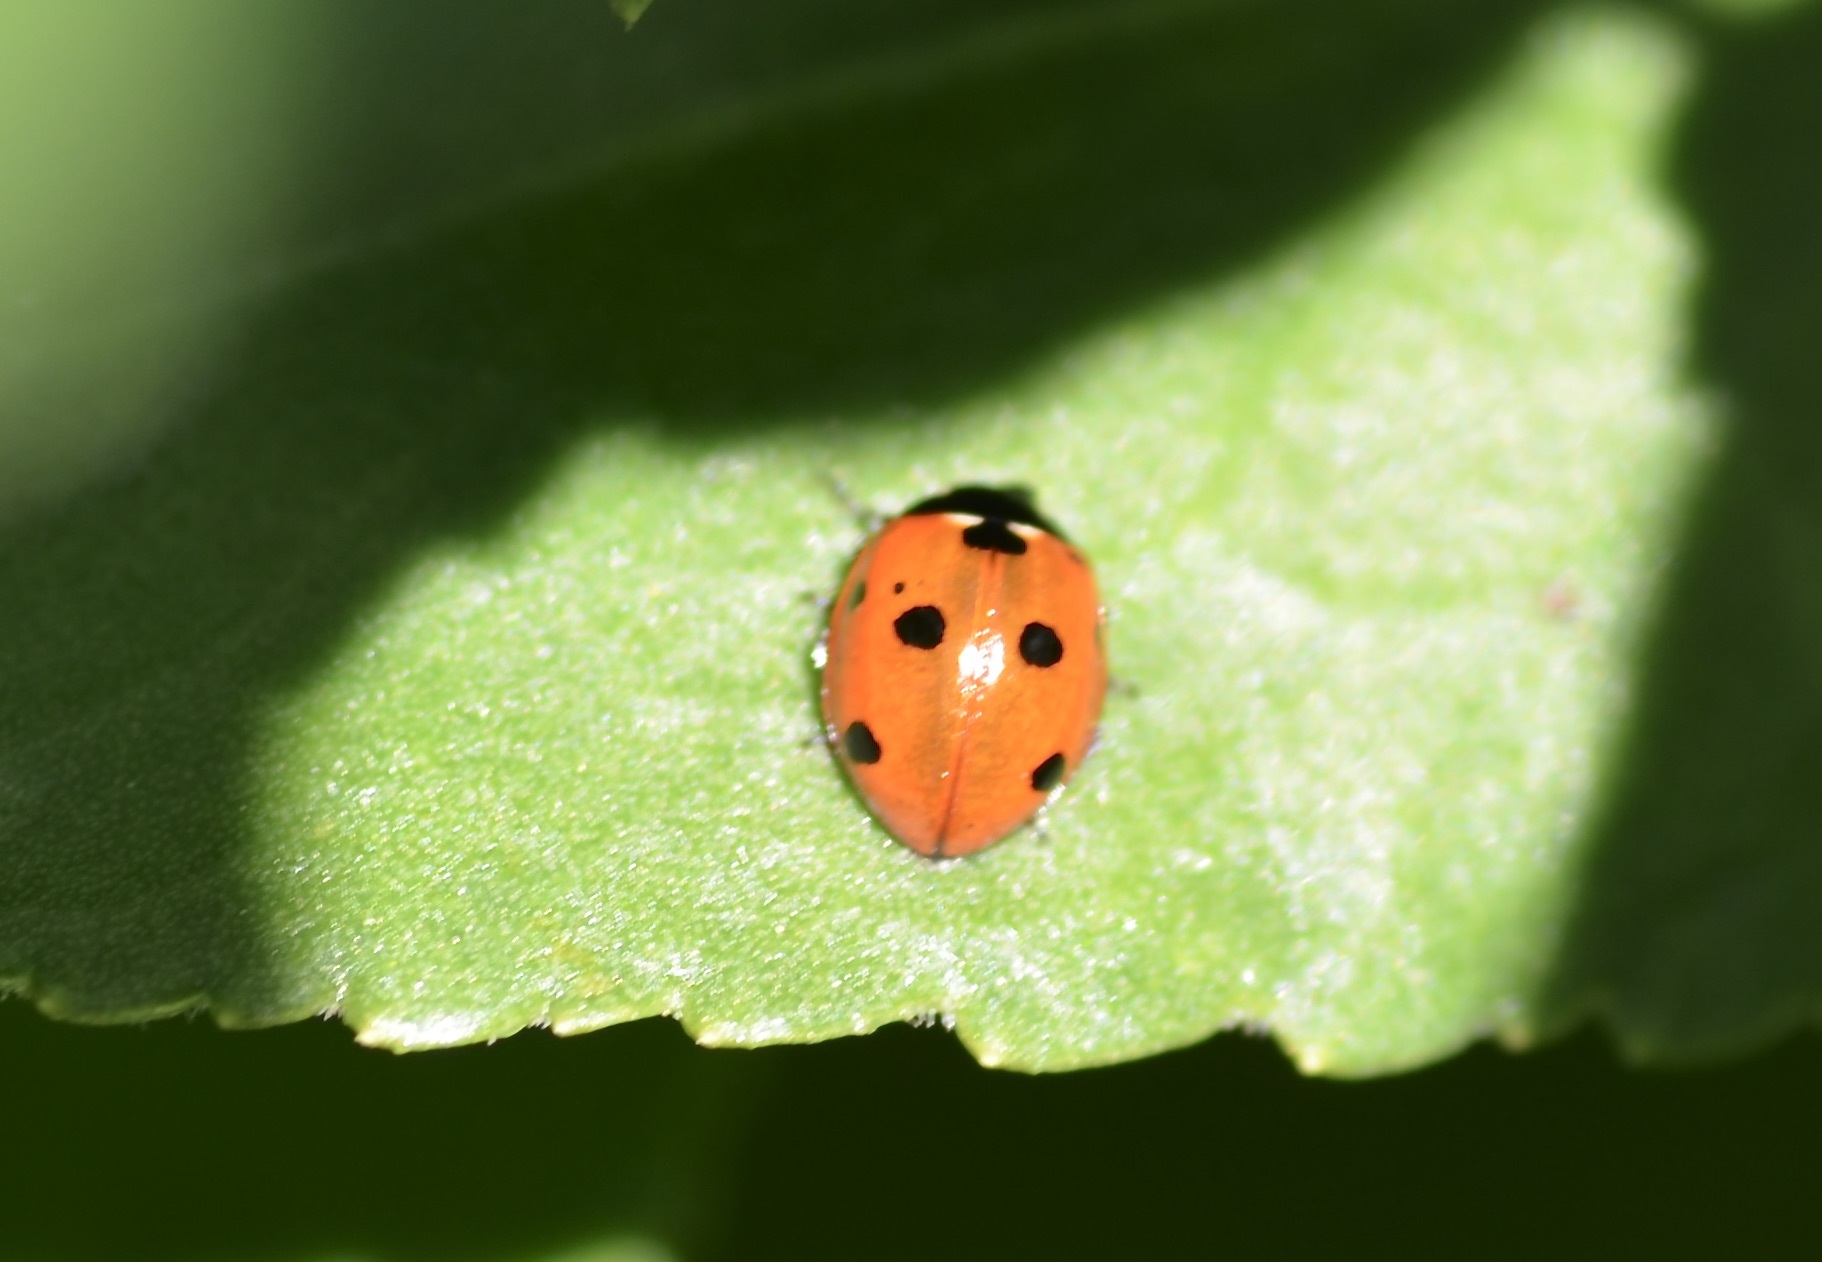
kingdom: Animalia
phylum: Arthropoda
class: Insecta
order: Coleoptera
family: Coccinellidae
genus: Coccinella
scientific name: Coccinella septempunctata
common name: Sevenspotted lady beetle
